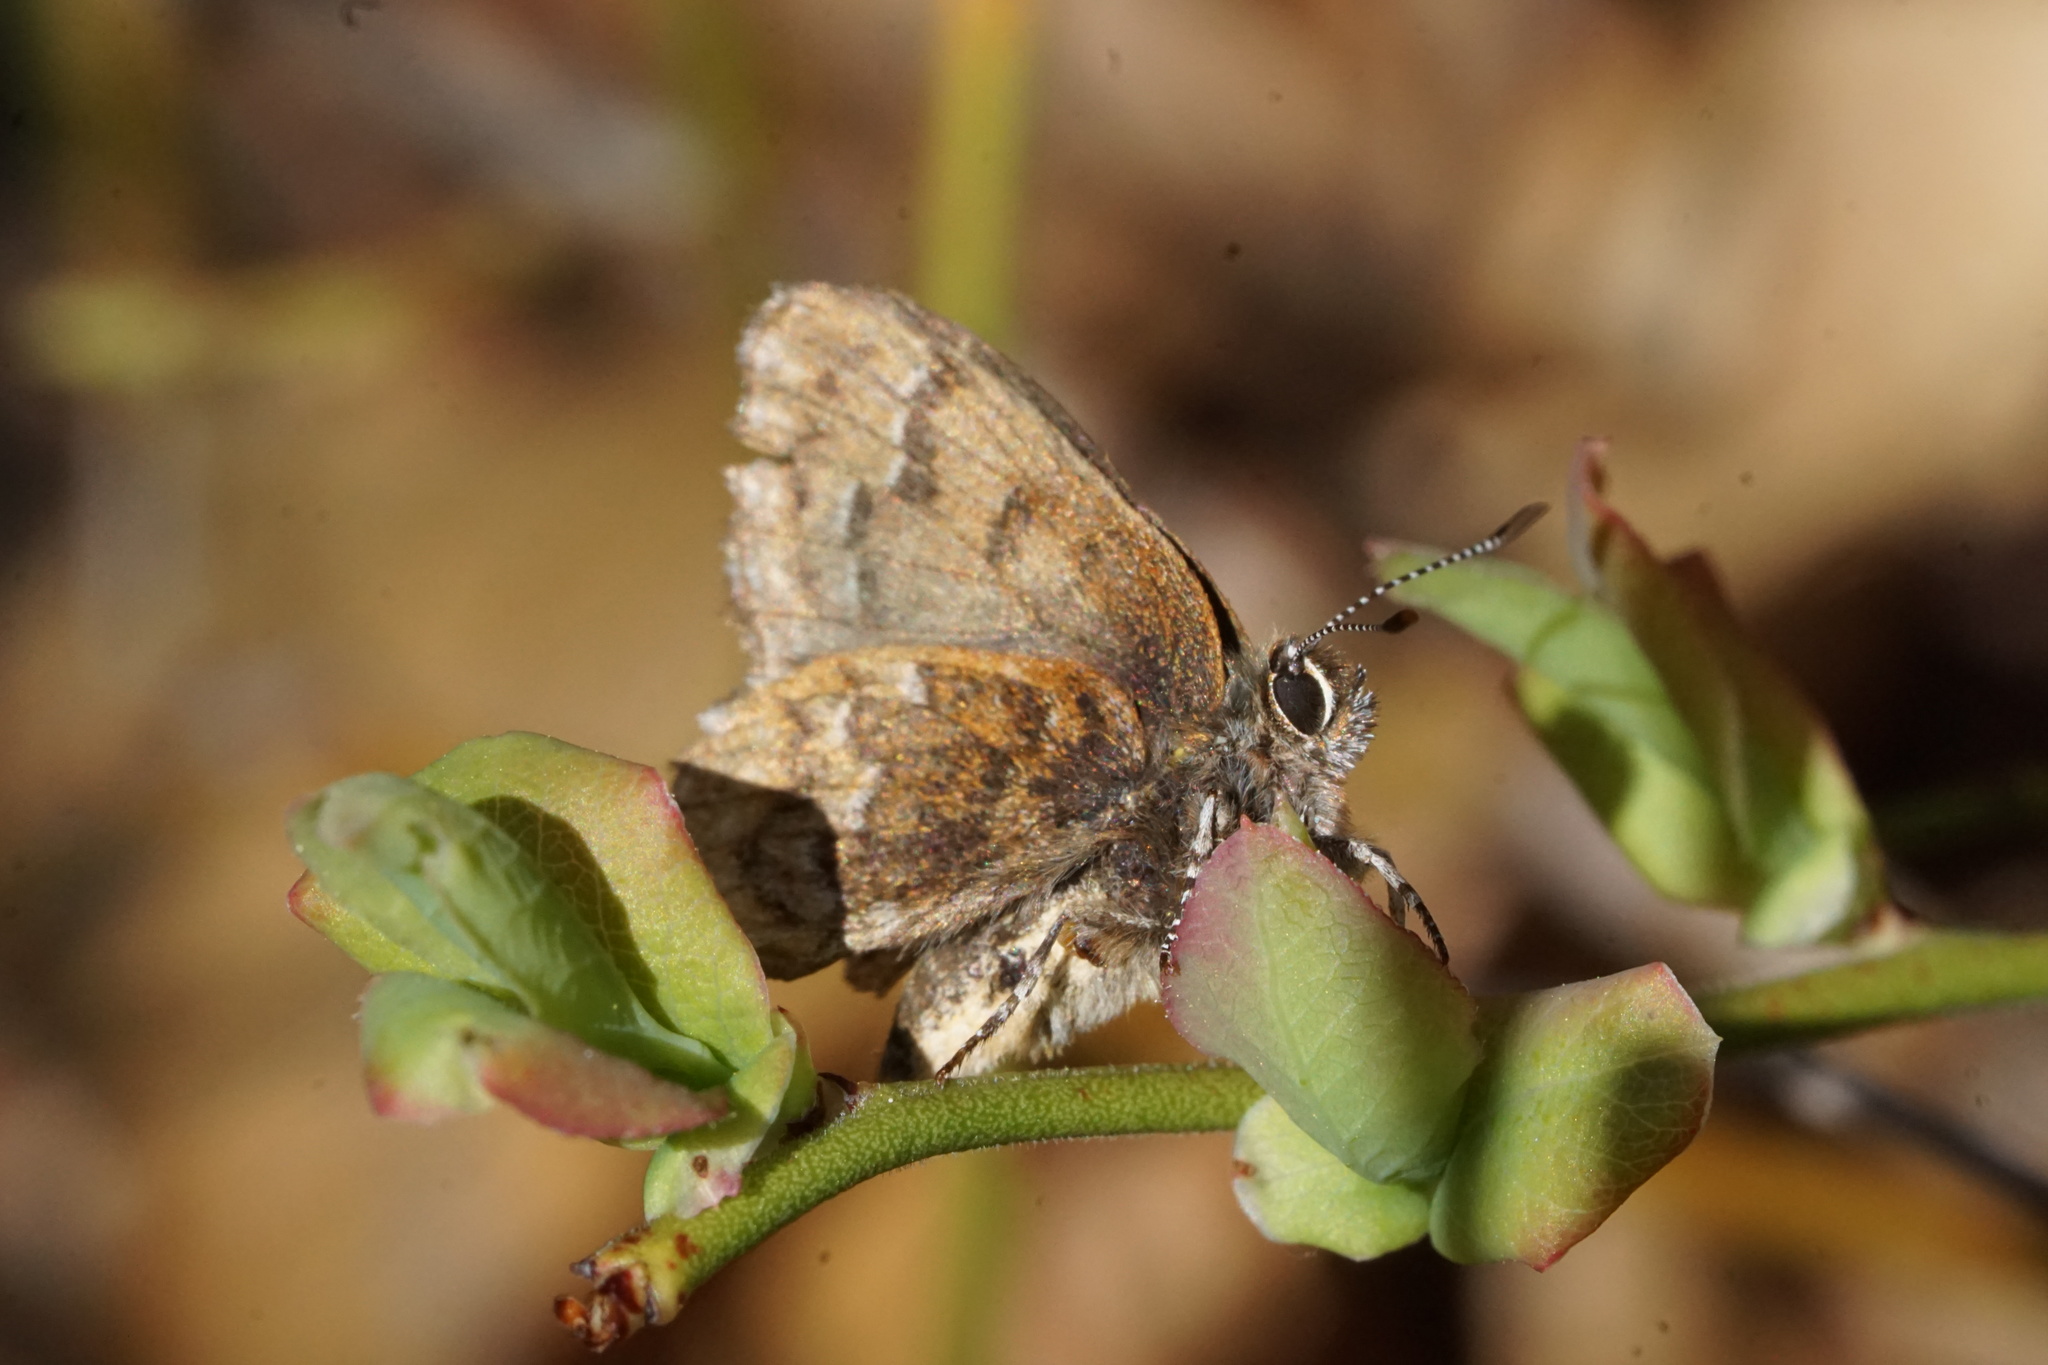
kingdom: Animalia
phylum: Arthropoda
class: Insecta
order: Lepidoptera
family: Lycaenidae
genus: Incisalia
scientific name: Incisalia niphon
